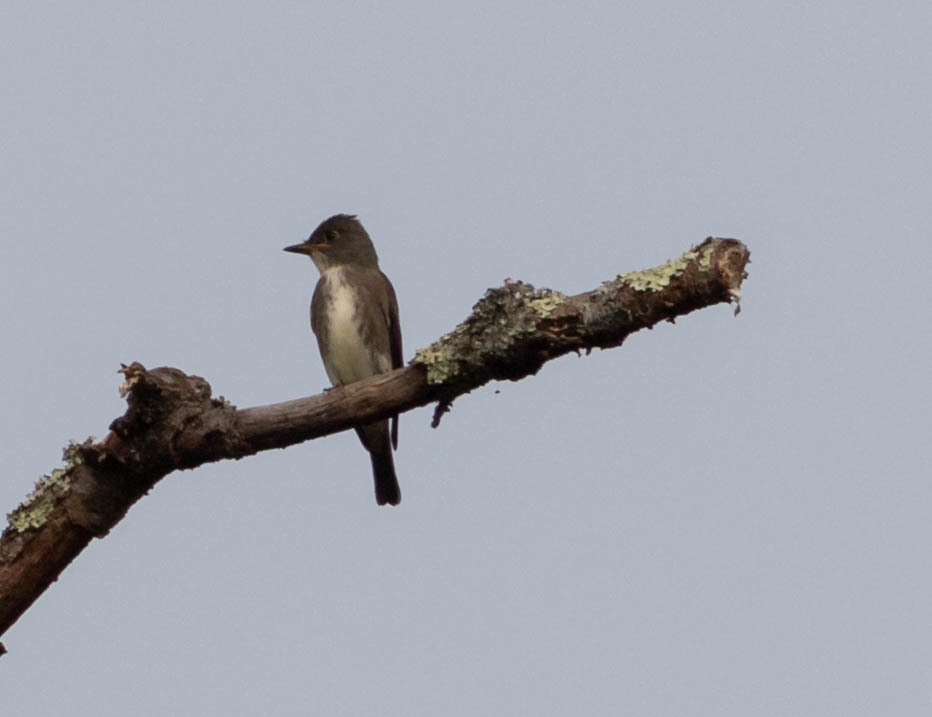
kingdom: Animalia
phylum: Chordata
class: Aves
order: Passeriformes
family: Tyrannidae
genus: Contopus
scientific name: Contopus cooperi
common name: Olive-sided flycatcher
